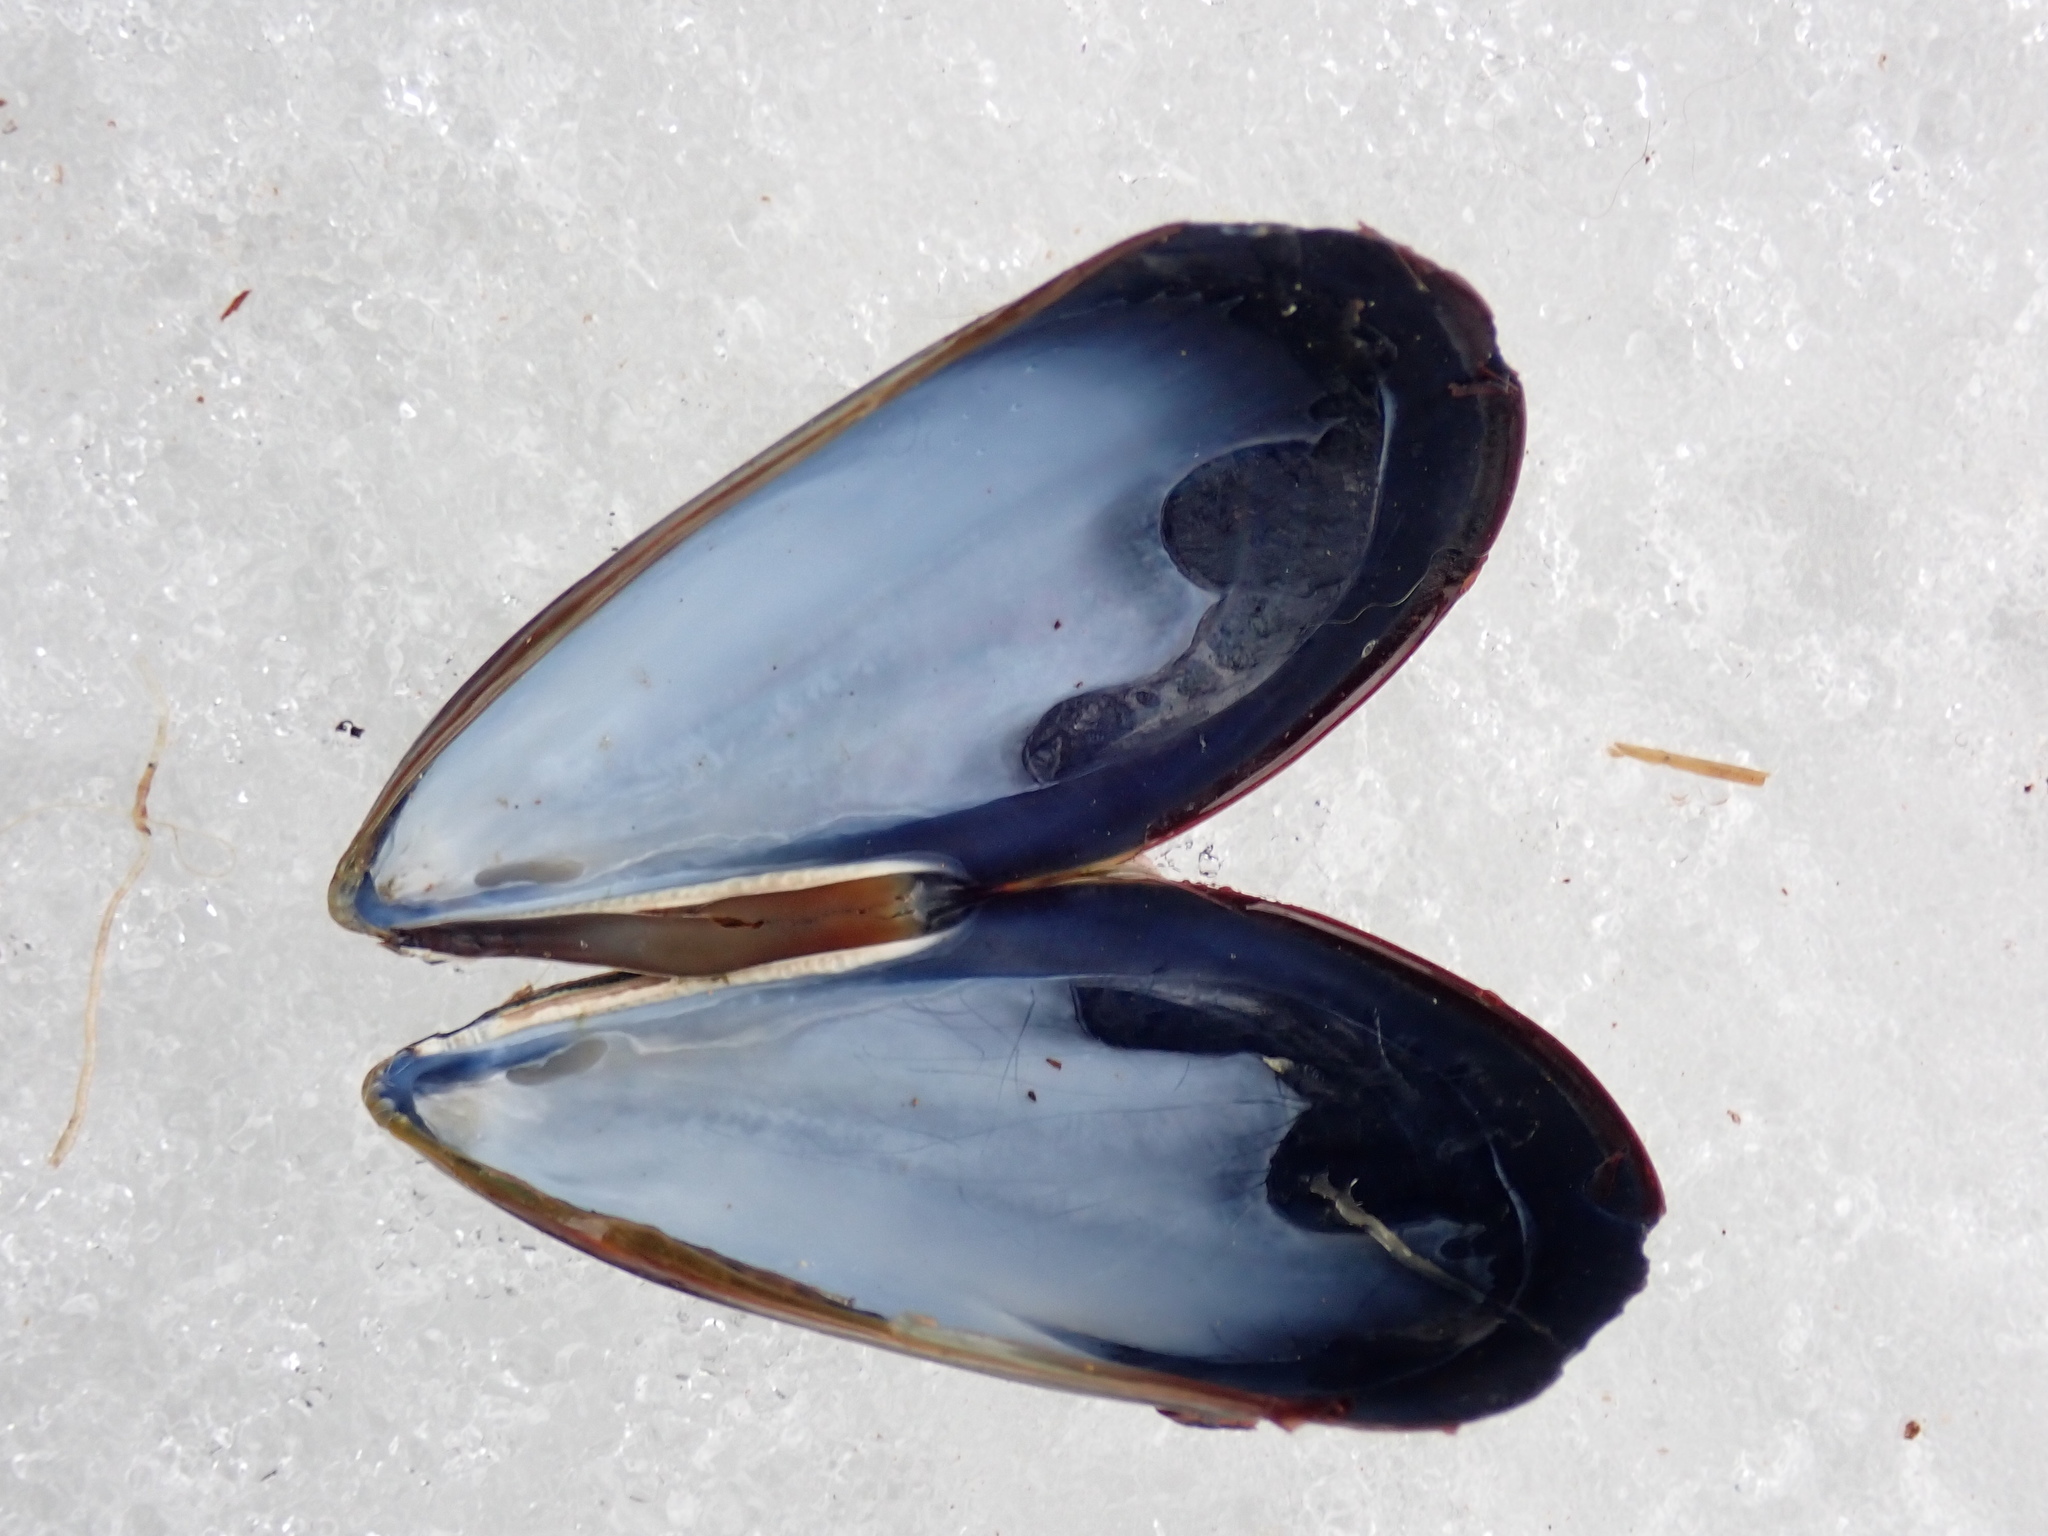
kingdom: Animalia
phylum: Mollusca
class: Bivalvia
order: Mytilida
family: Mytilidae
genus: Mytilus
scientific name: Mytilus edulis
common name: Blue mussel
